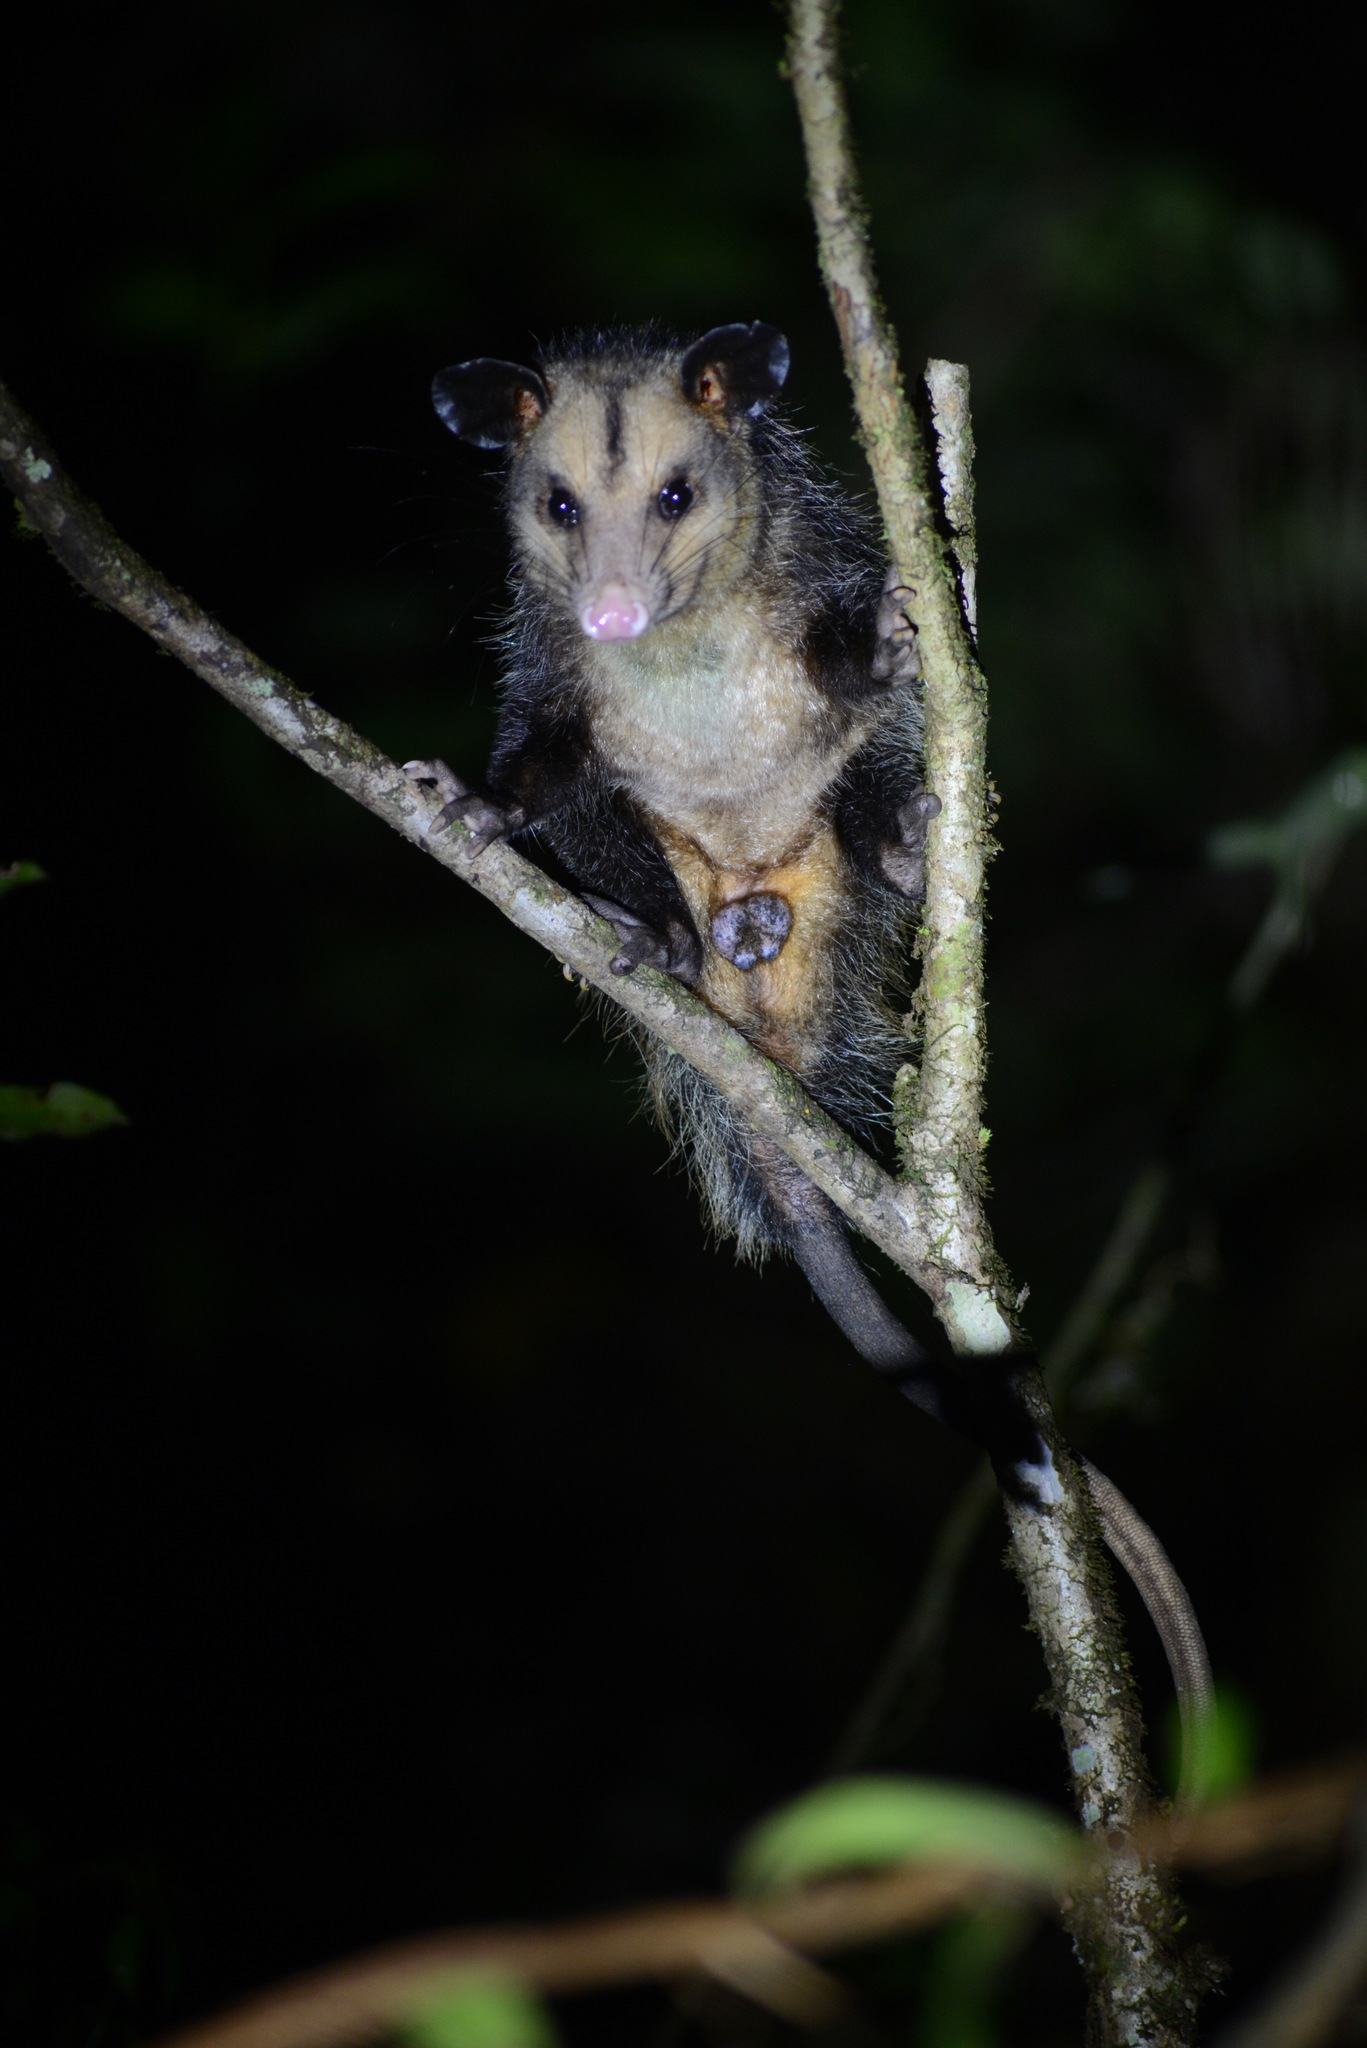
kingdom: Animalia
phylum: Chordata
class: Mammalia
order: Didelphimorphia
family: Didelphidae
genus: Didelphis
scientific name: Didelphis aurita
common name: Big-eared opossum
